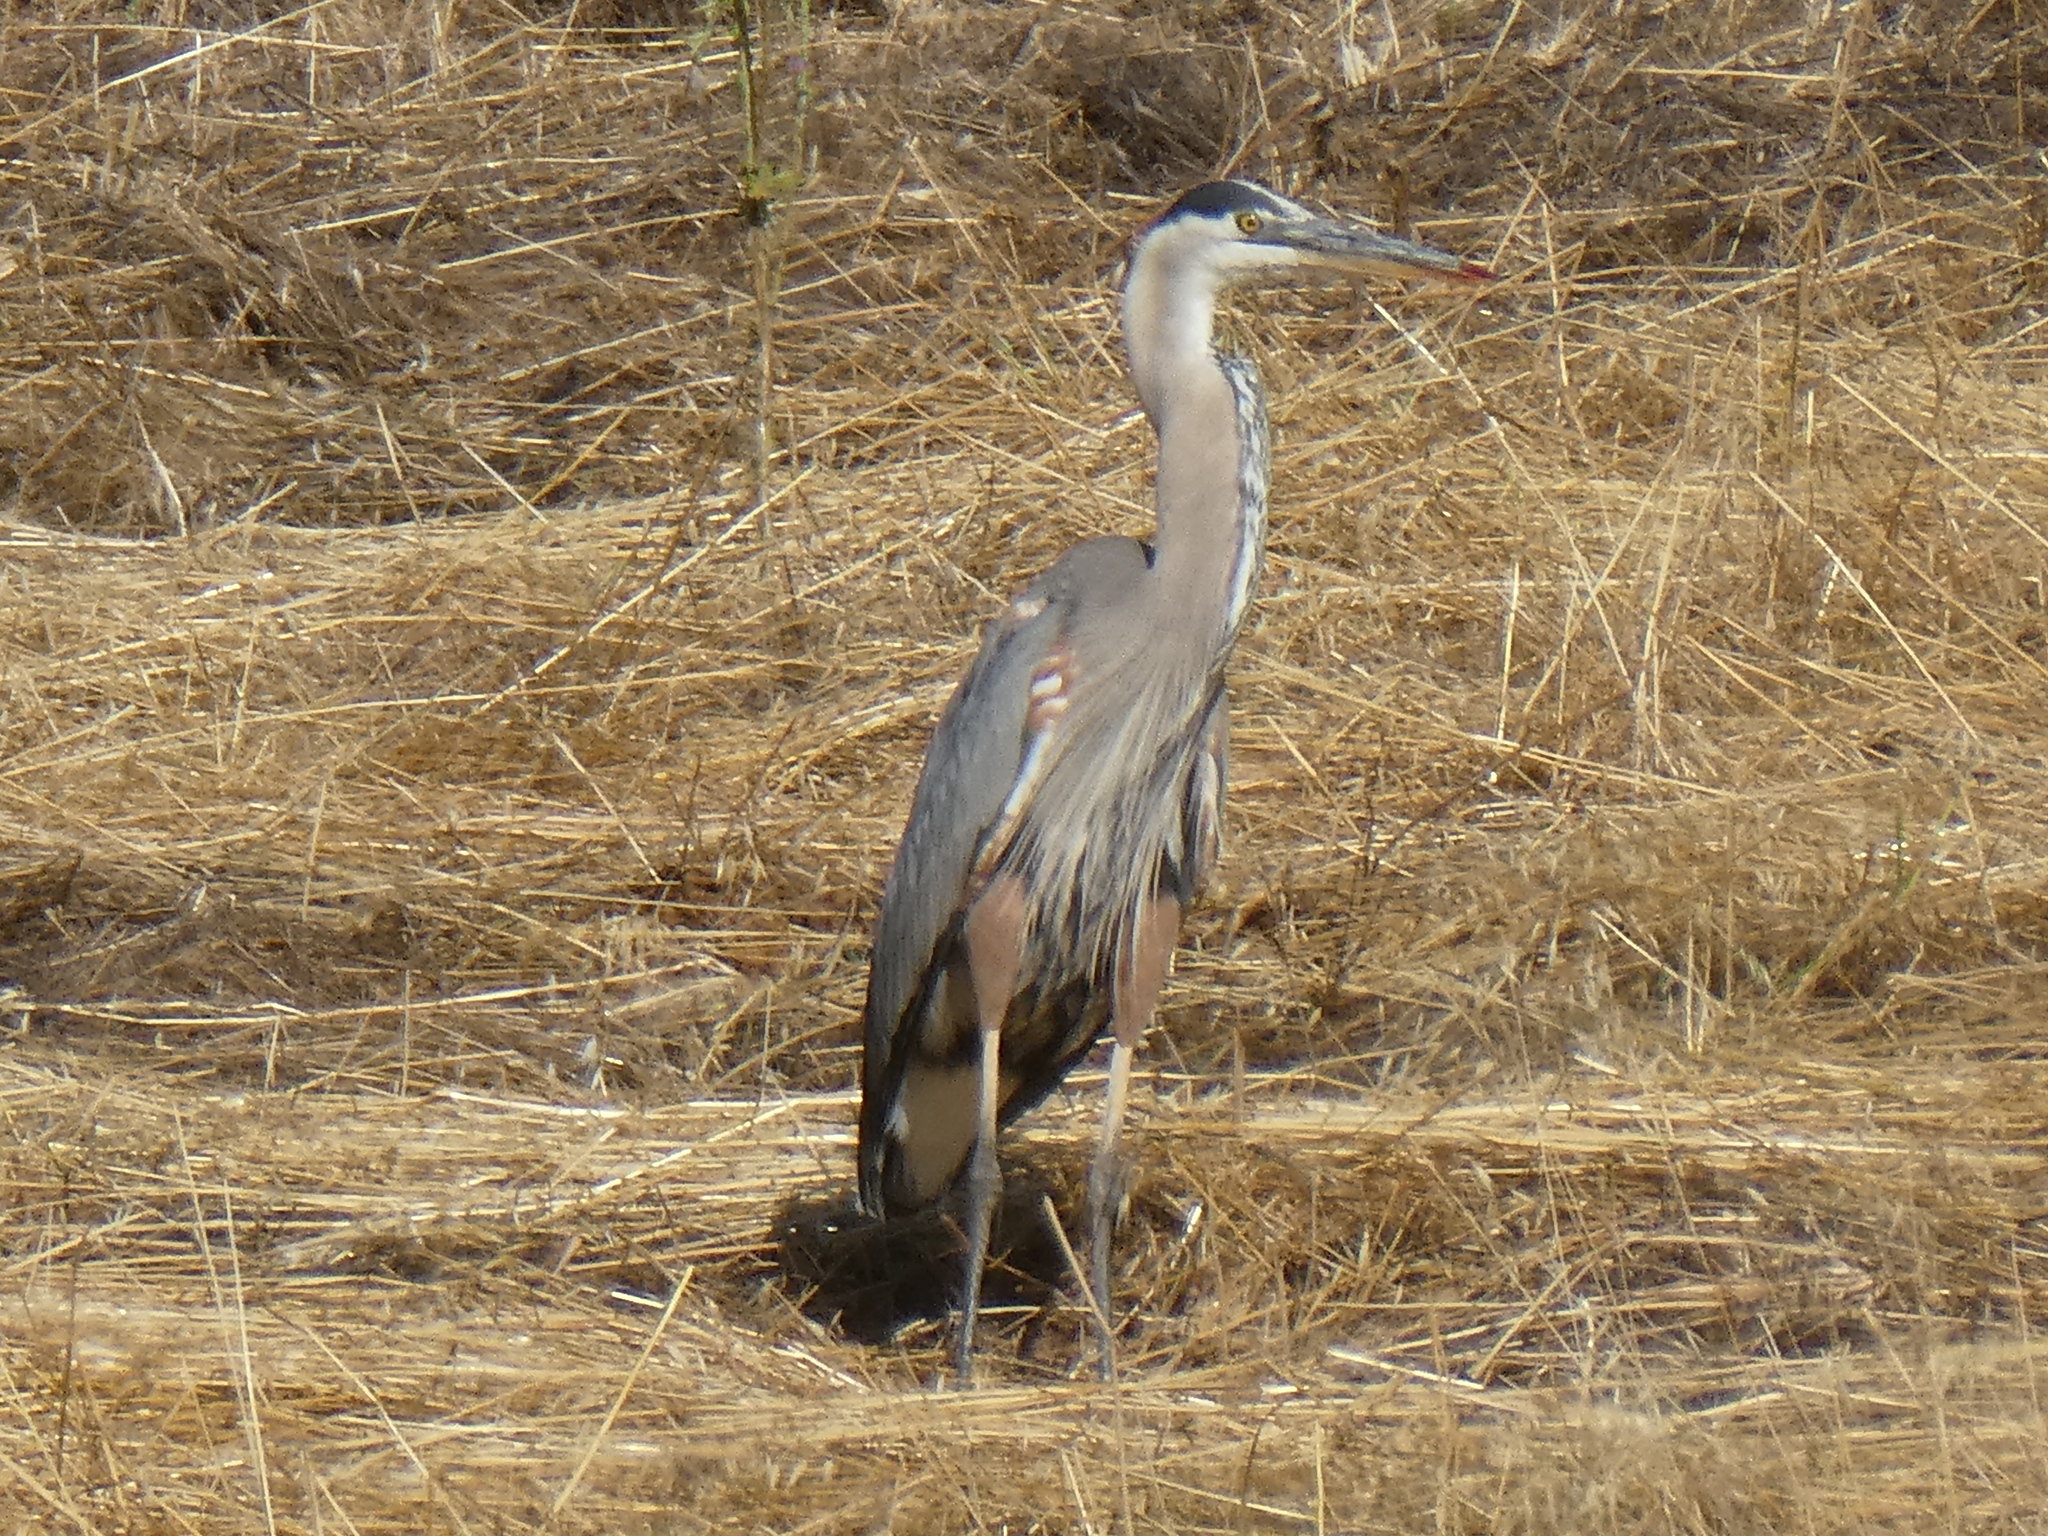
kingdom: Animalia
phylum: Chordata
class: Aves
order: Pelecaniformes
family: Ardeidae
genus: Ardea
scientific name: Ardea herodias
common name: Great blue heron
